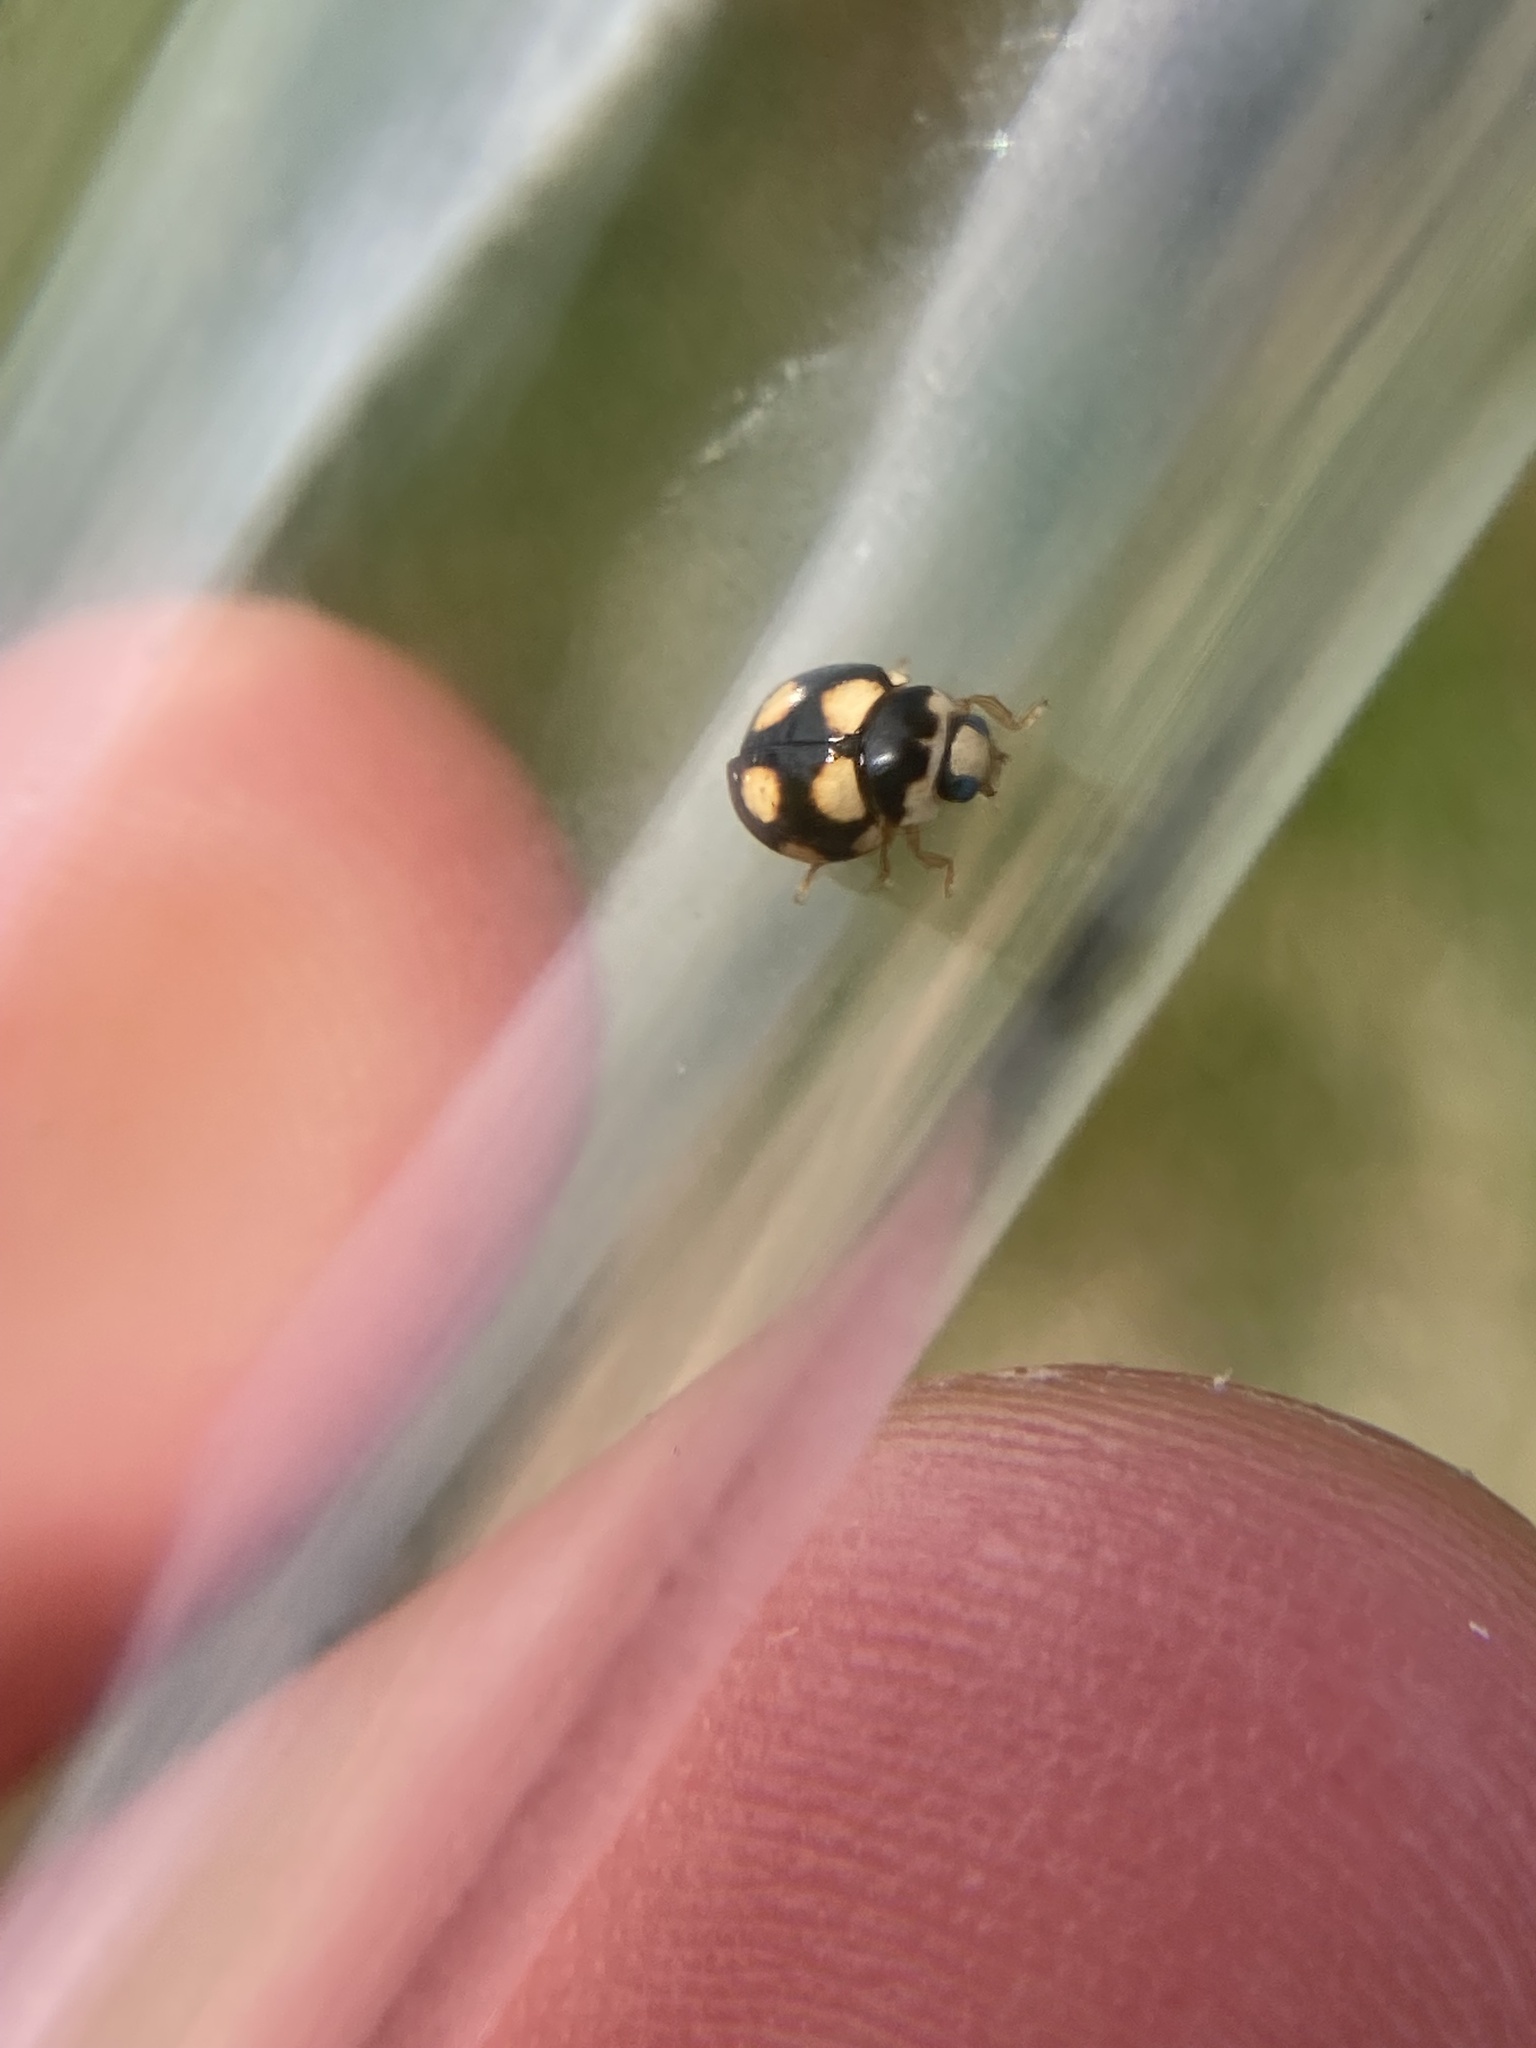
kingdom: Animalia
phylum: Arthropoda
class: Insecta
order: Coleoptera
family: Coccinellidae
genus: Brachiacantha
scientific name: Brachiacantha ursina
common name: Ursine spurleg lady beetle
